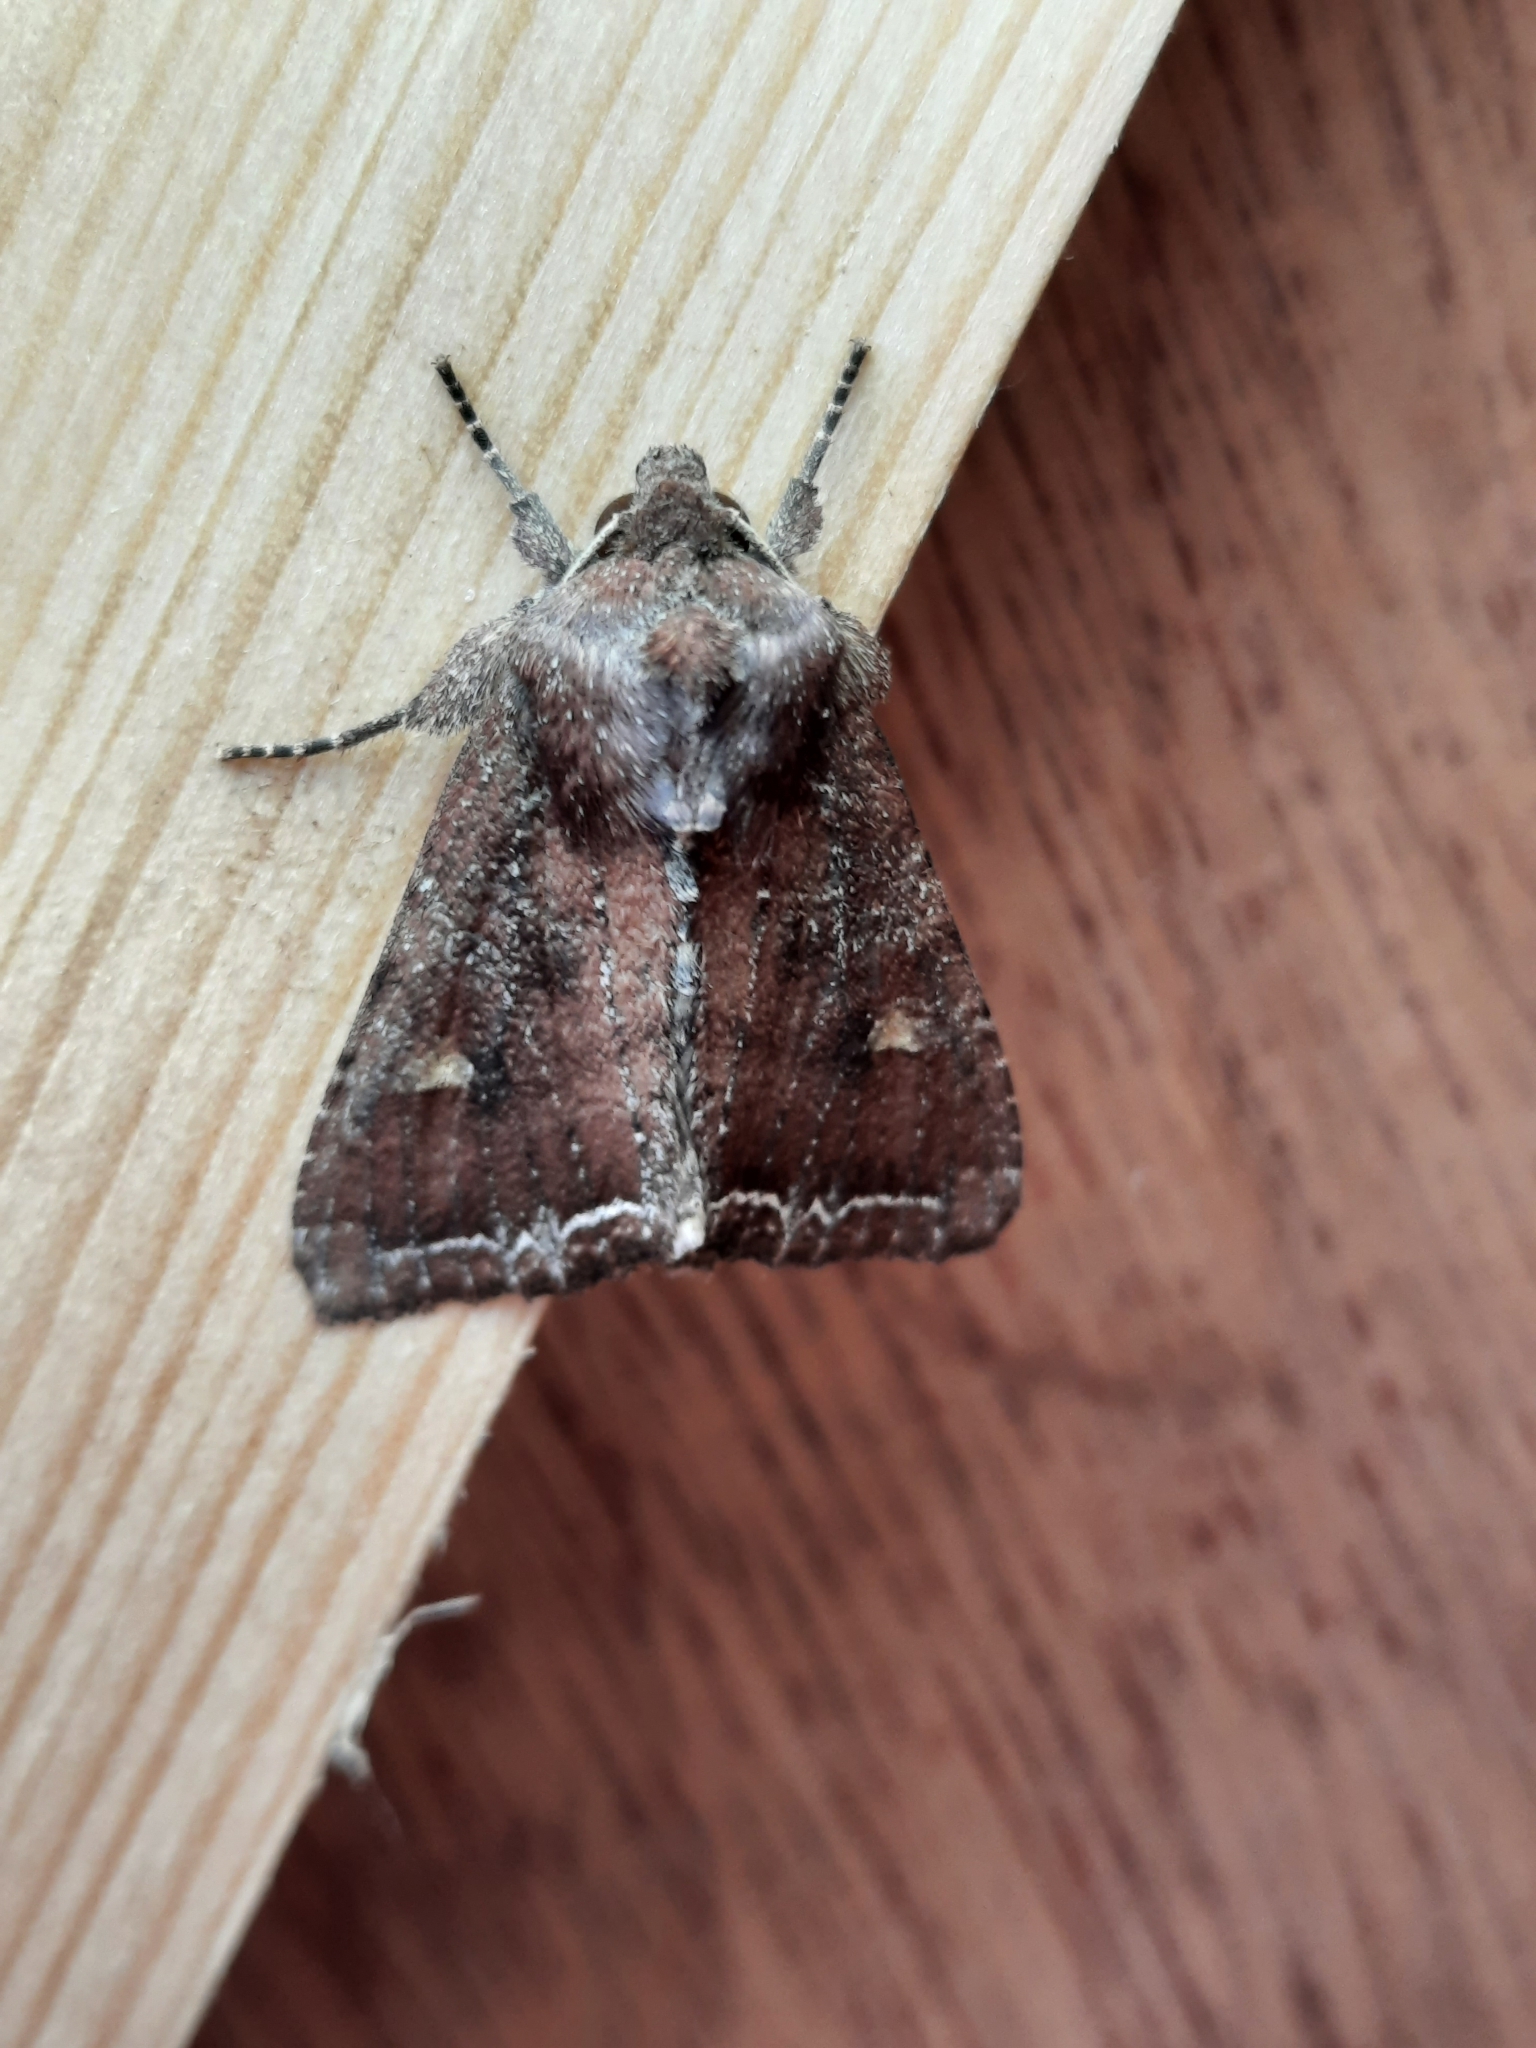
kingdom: Animalia
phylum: Arthropoda
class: Insecta
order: Lepidoptera
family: Noctuidae
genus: Lacanobia
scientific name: Lacanobia oleracea
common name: Bright-line brown-eye
